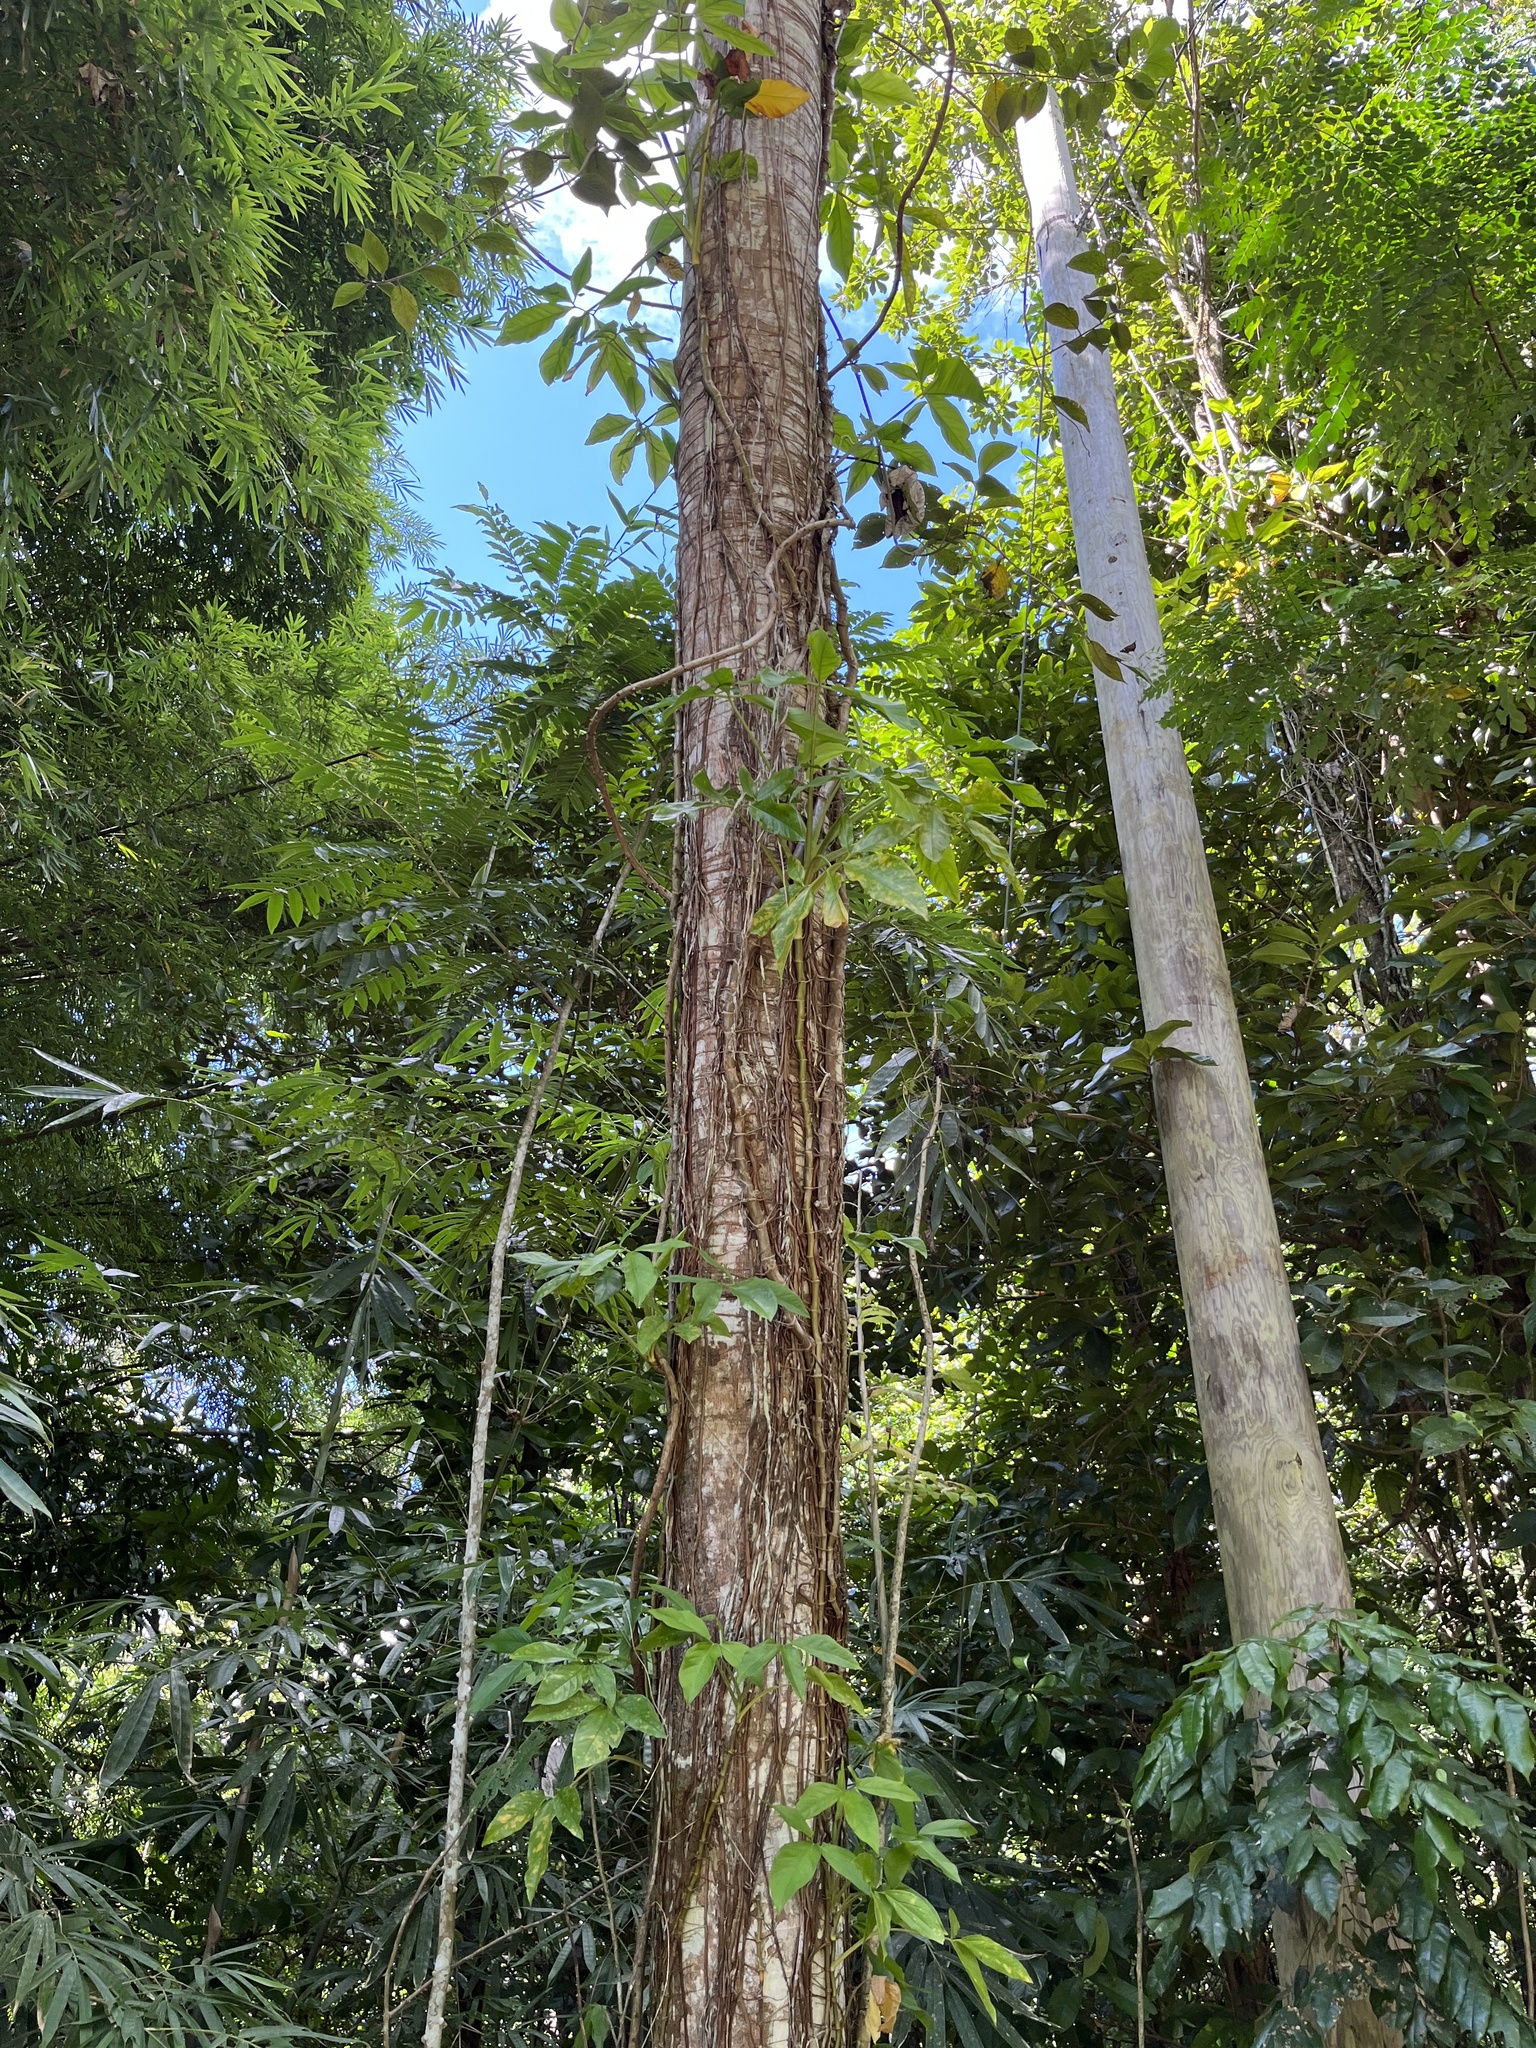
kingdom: Plantae
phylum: Tracheophyta
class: Liliopsida
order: Alismatales
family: Araceae
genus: Syngonium
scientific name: Syngonium podophyllum
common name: American evergreen
